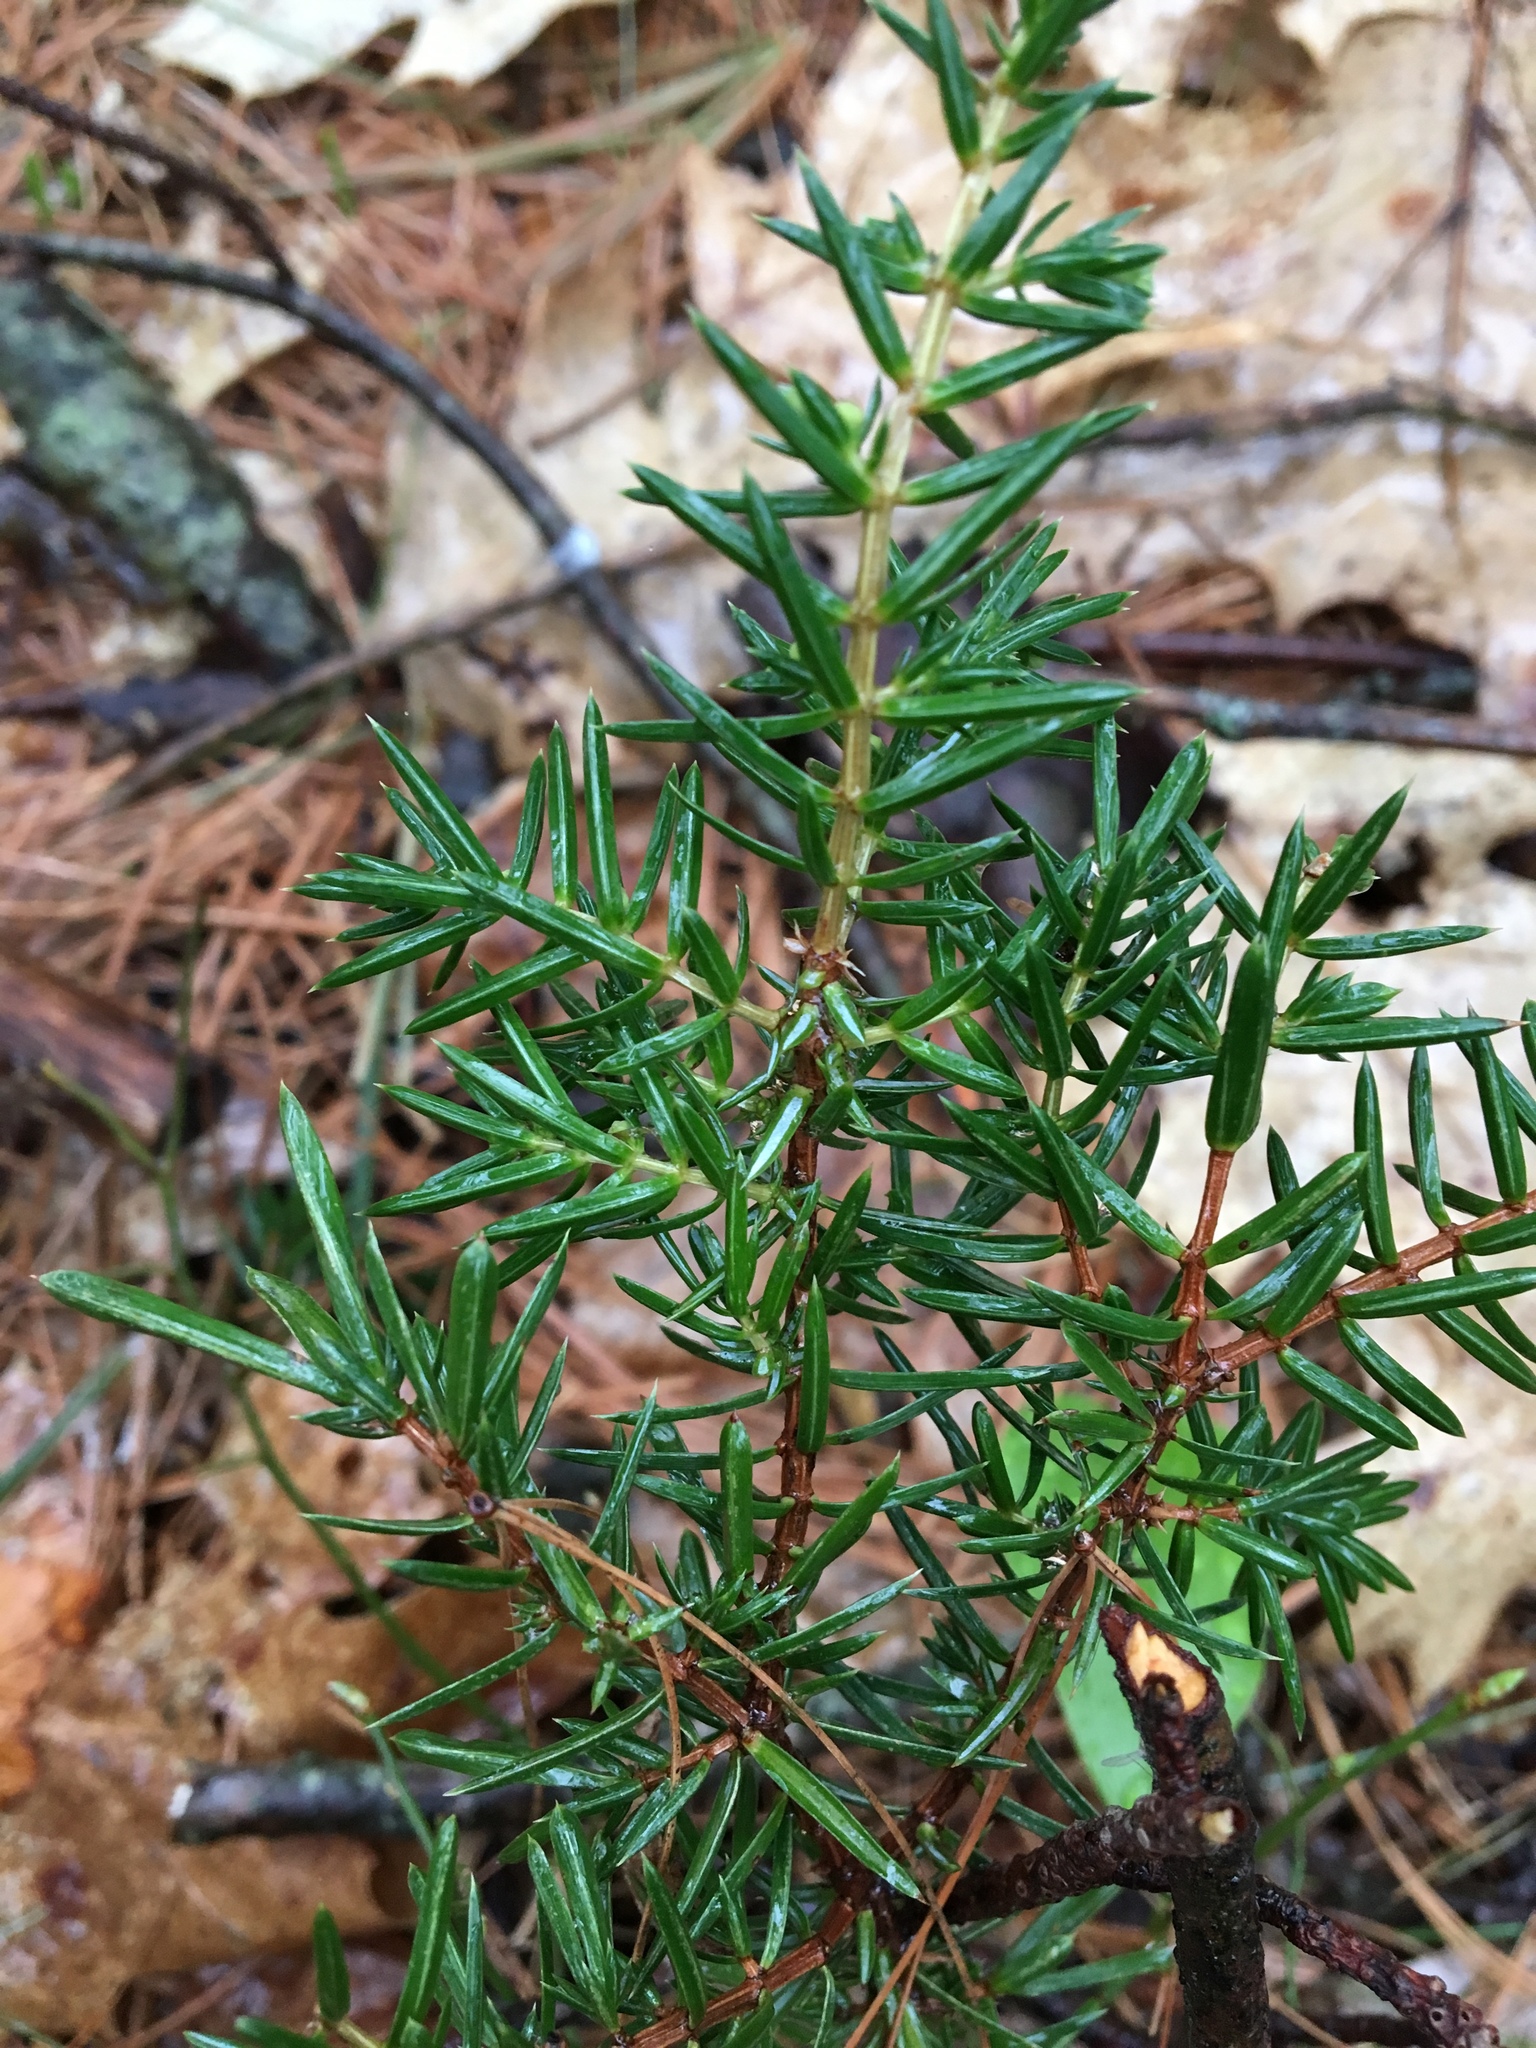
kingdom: Plantae
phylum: Tracheophyta
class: Pinopsida
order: Pinales
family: Cupressaceae
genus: Juniperus
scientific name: Juniperus communis
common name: Common juniper
